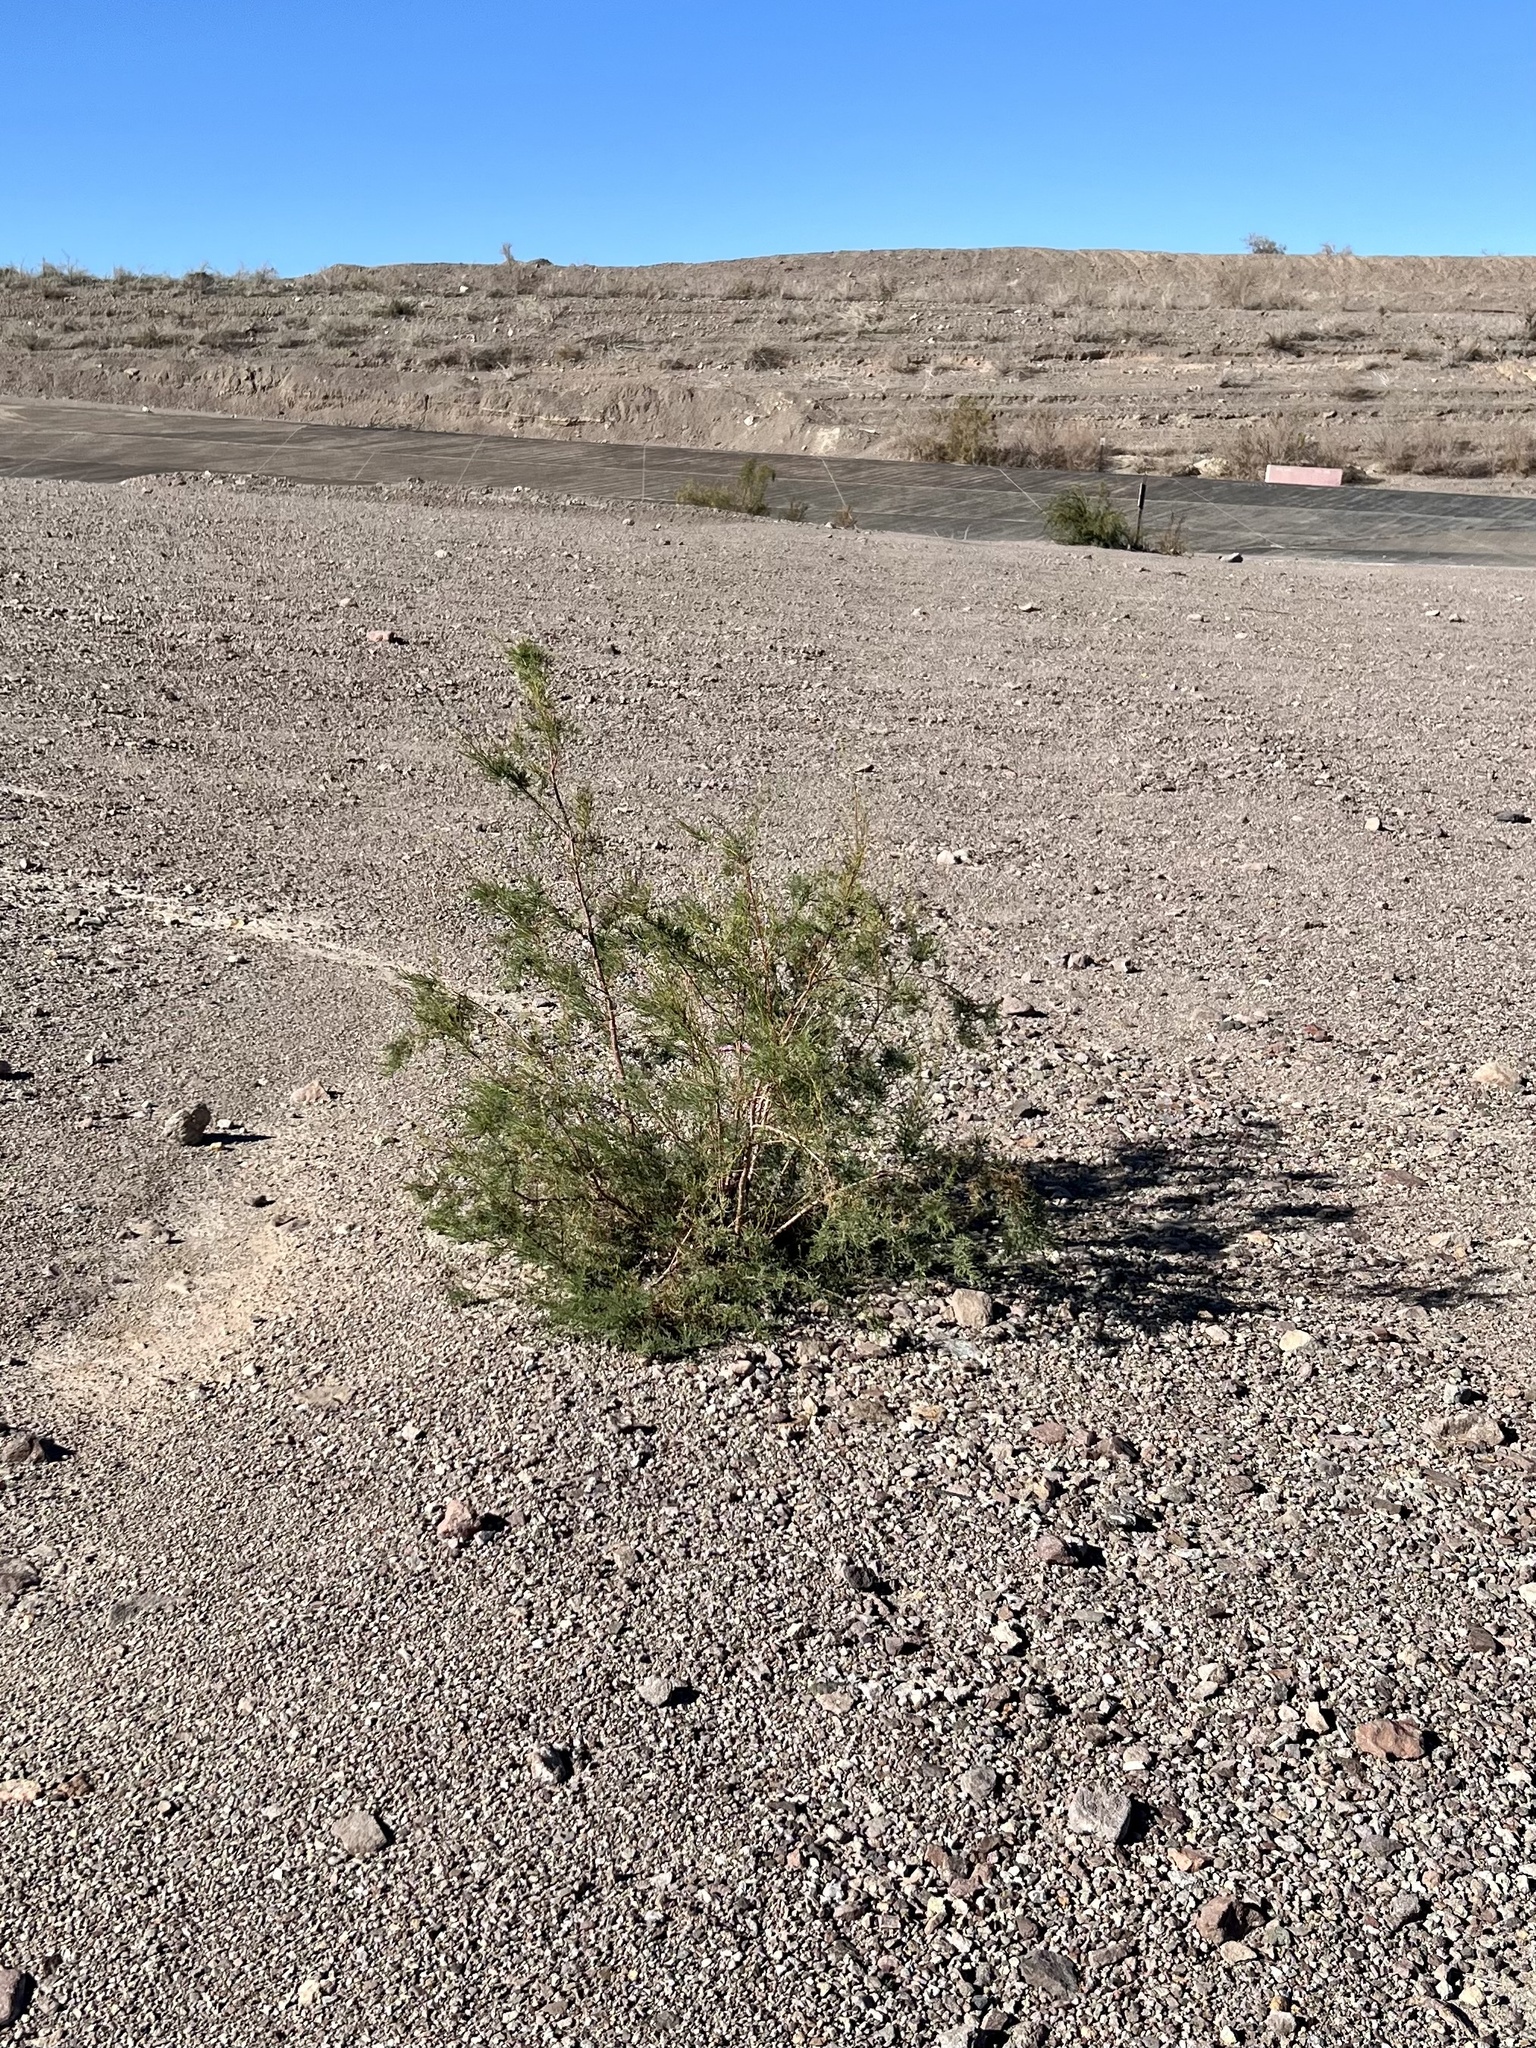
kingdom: Plantae
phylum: Tracheophyta
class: Magnoliopsida
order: Caryophyllales
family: Tamaricaceae
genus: Tamarix
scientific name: Tamarix ramosissima
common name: Pink tamarisk
